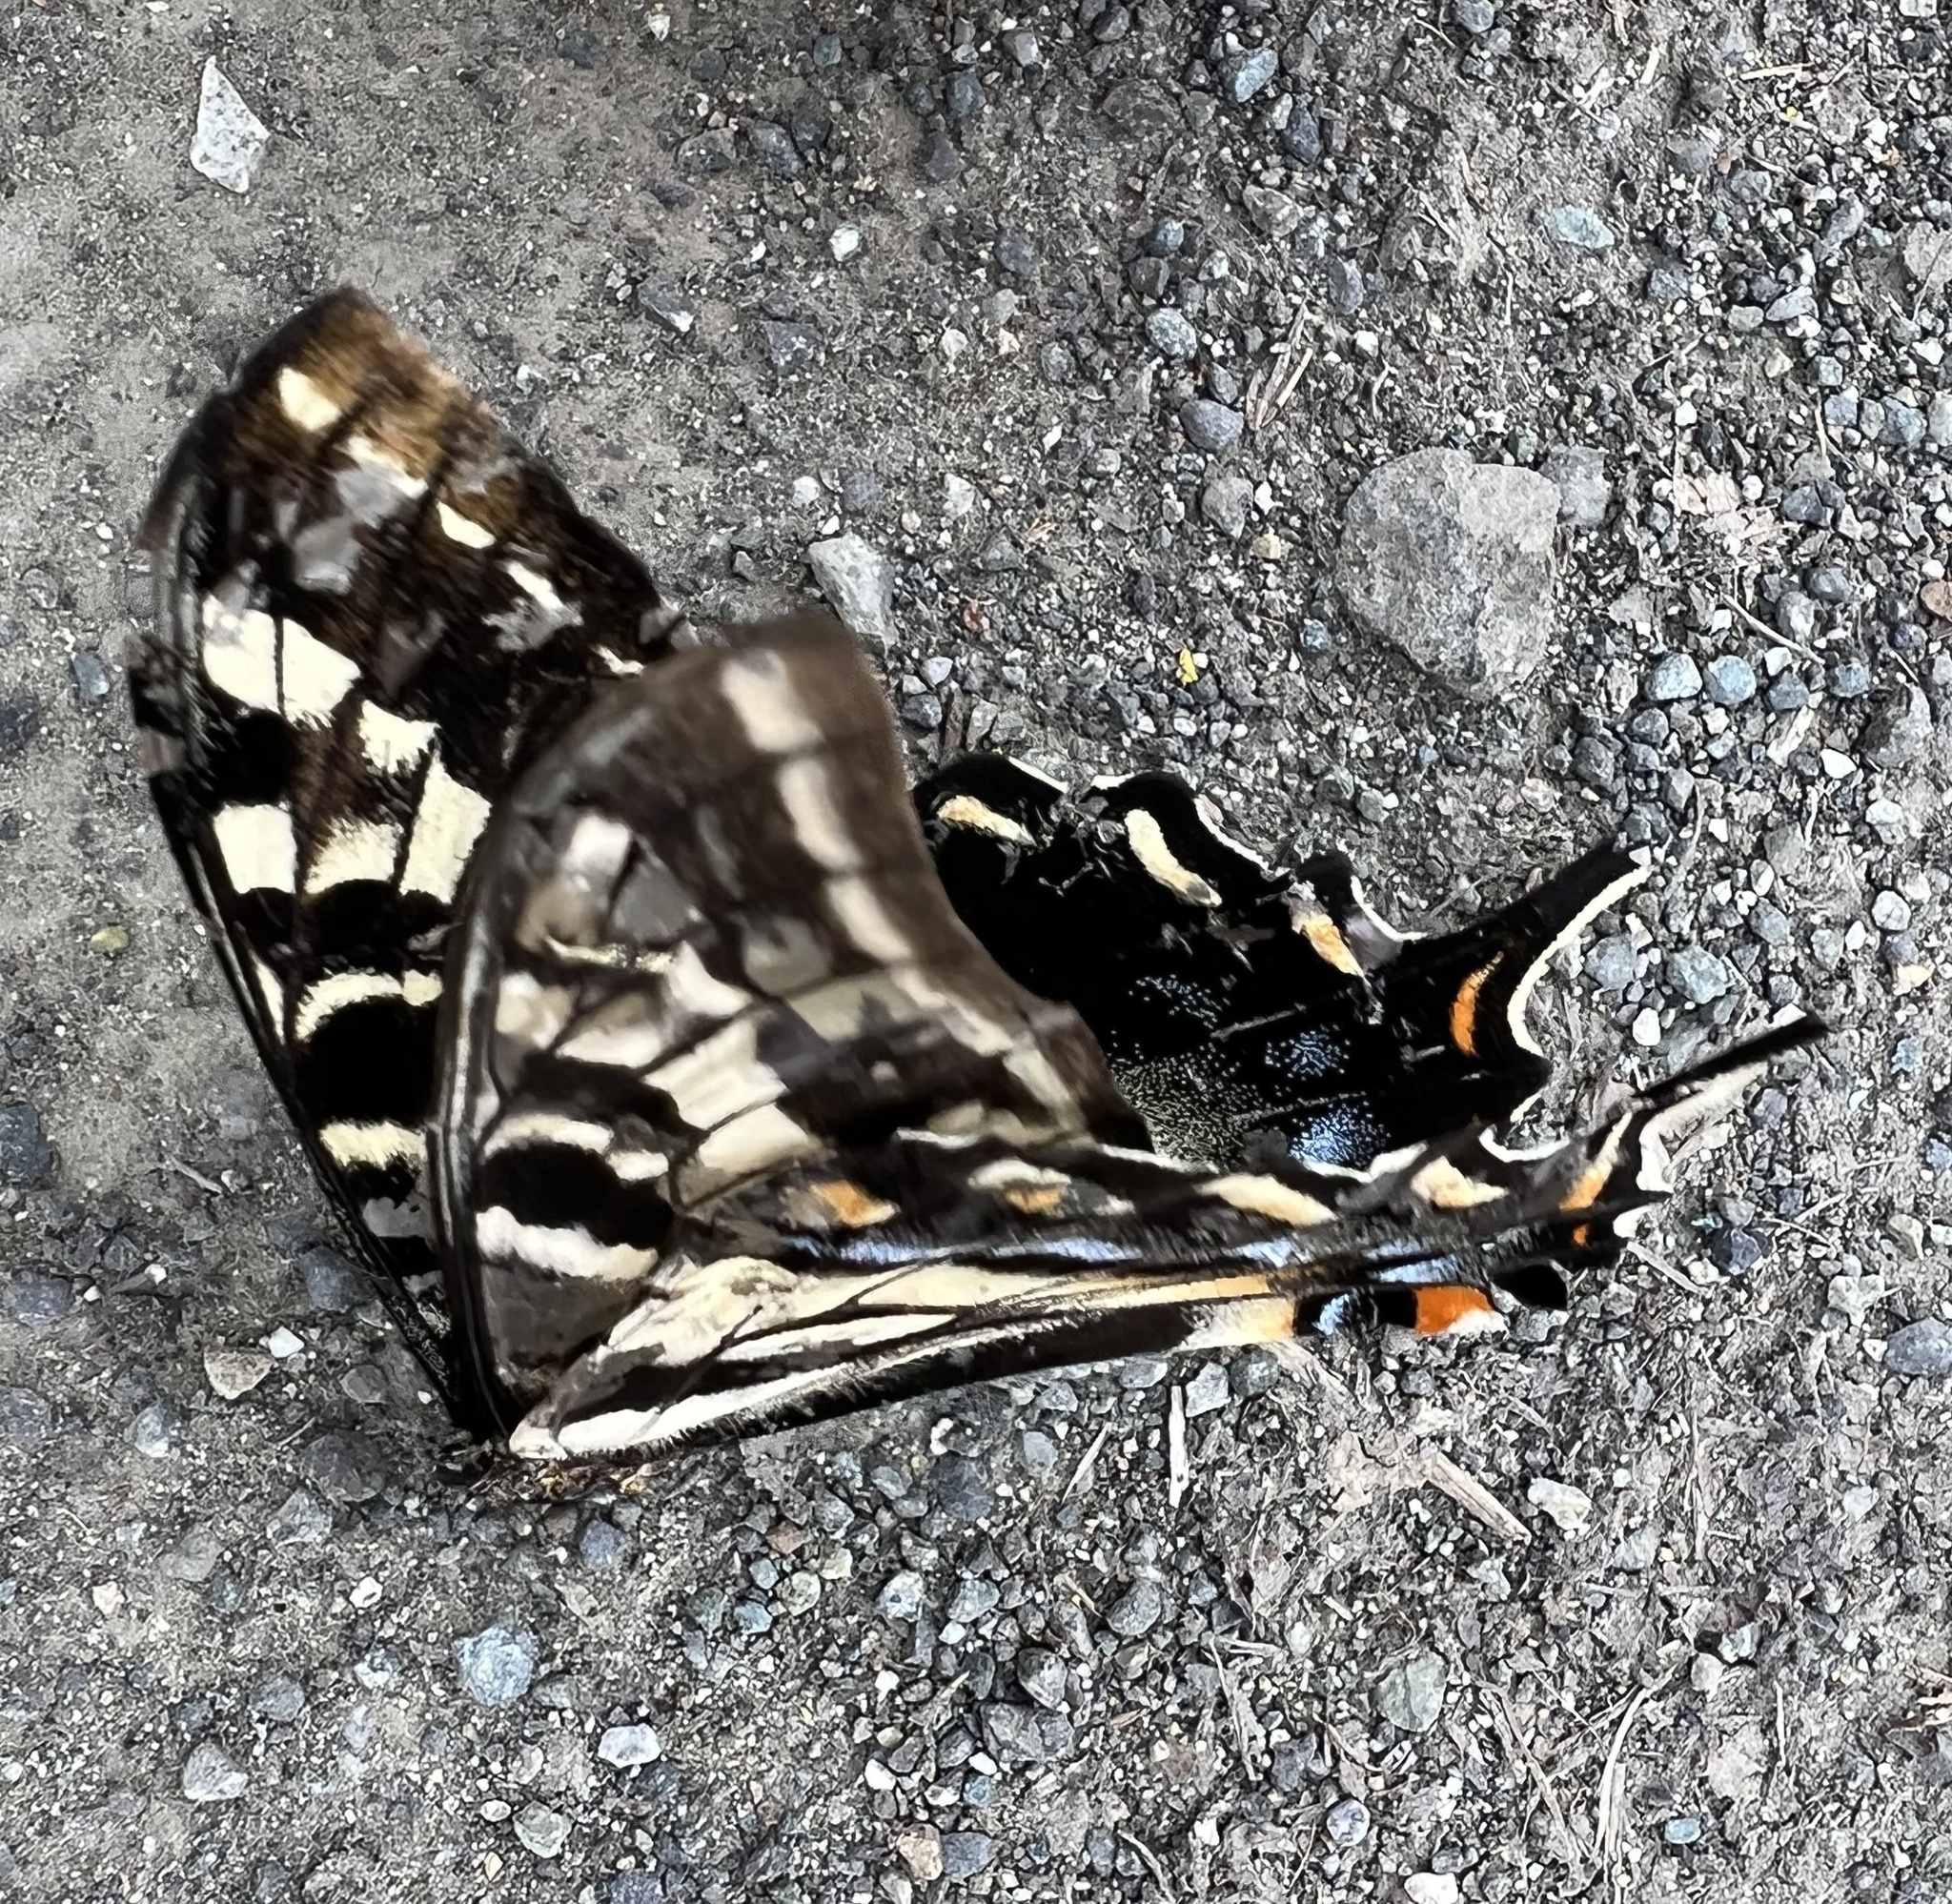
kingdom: Animalia
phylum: Arthropoda
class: Insecta
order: Lepidoptera
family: Papilionidae
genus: Papilio
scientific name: Papilio eurymedon
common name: Pale tiger swallowtail
